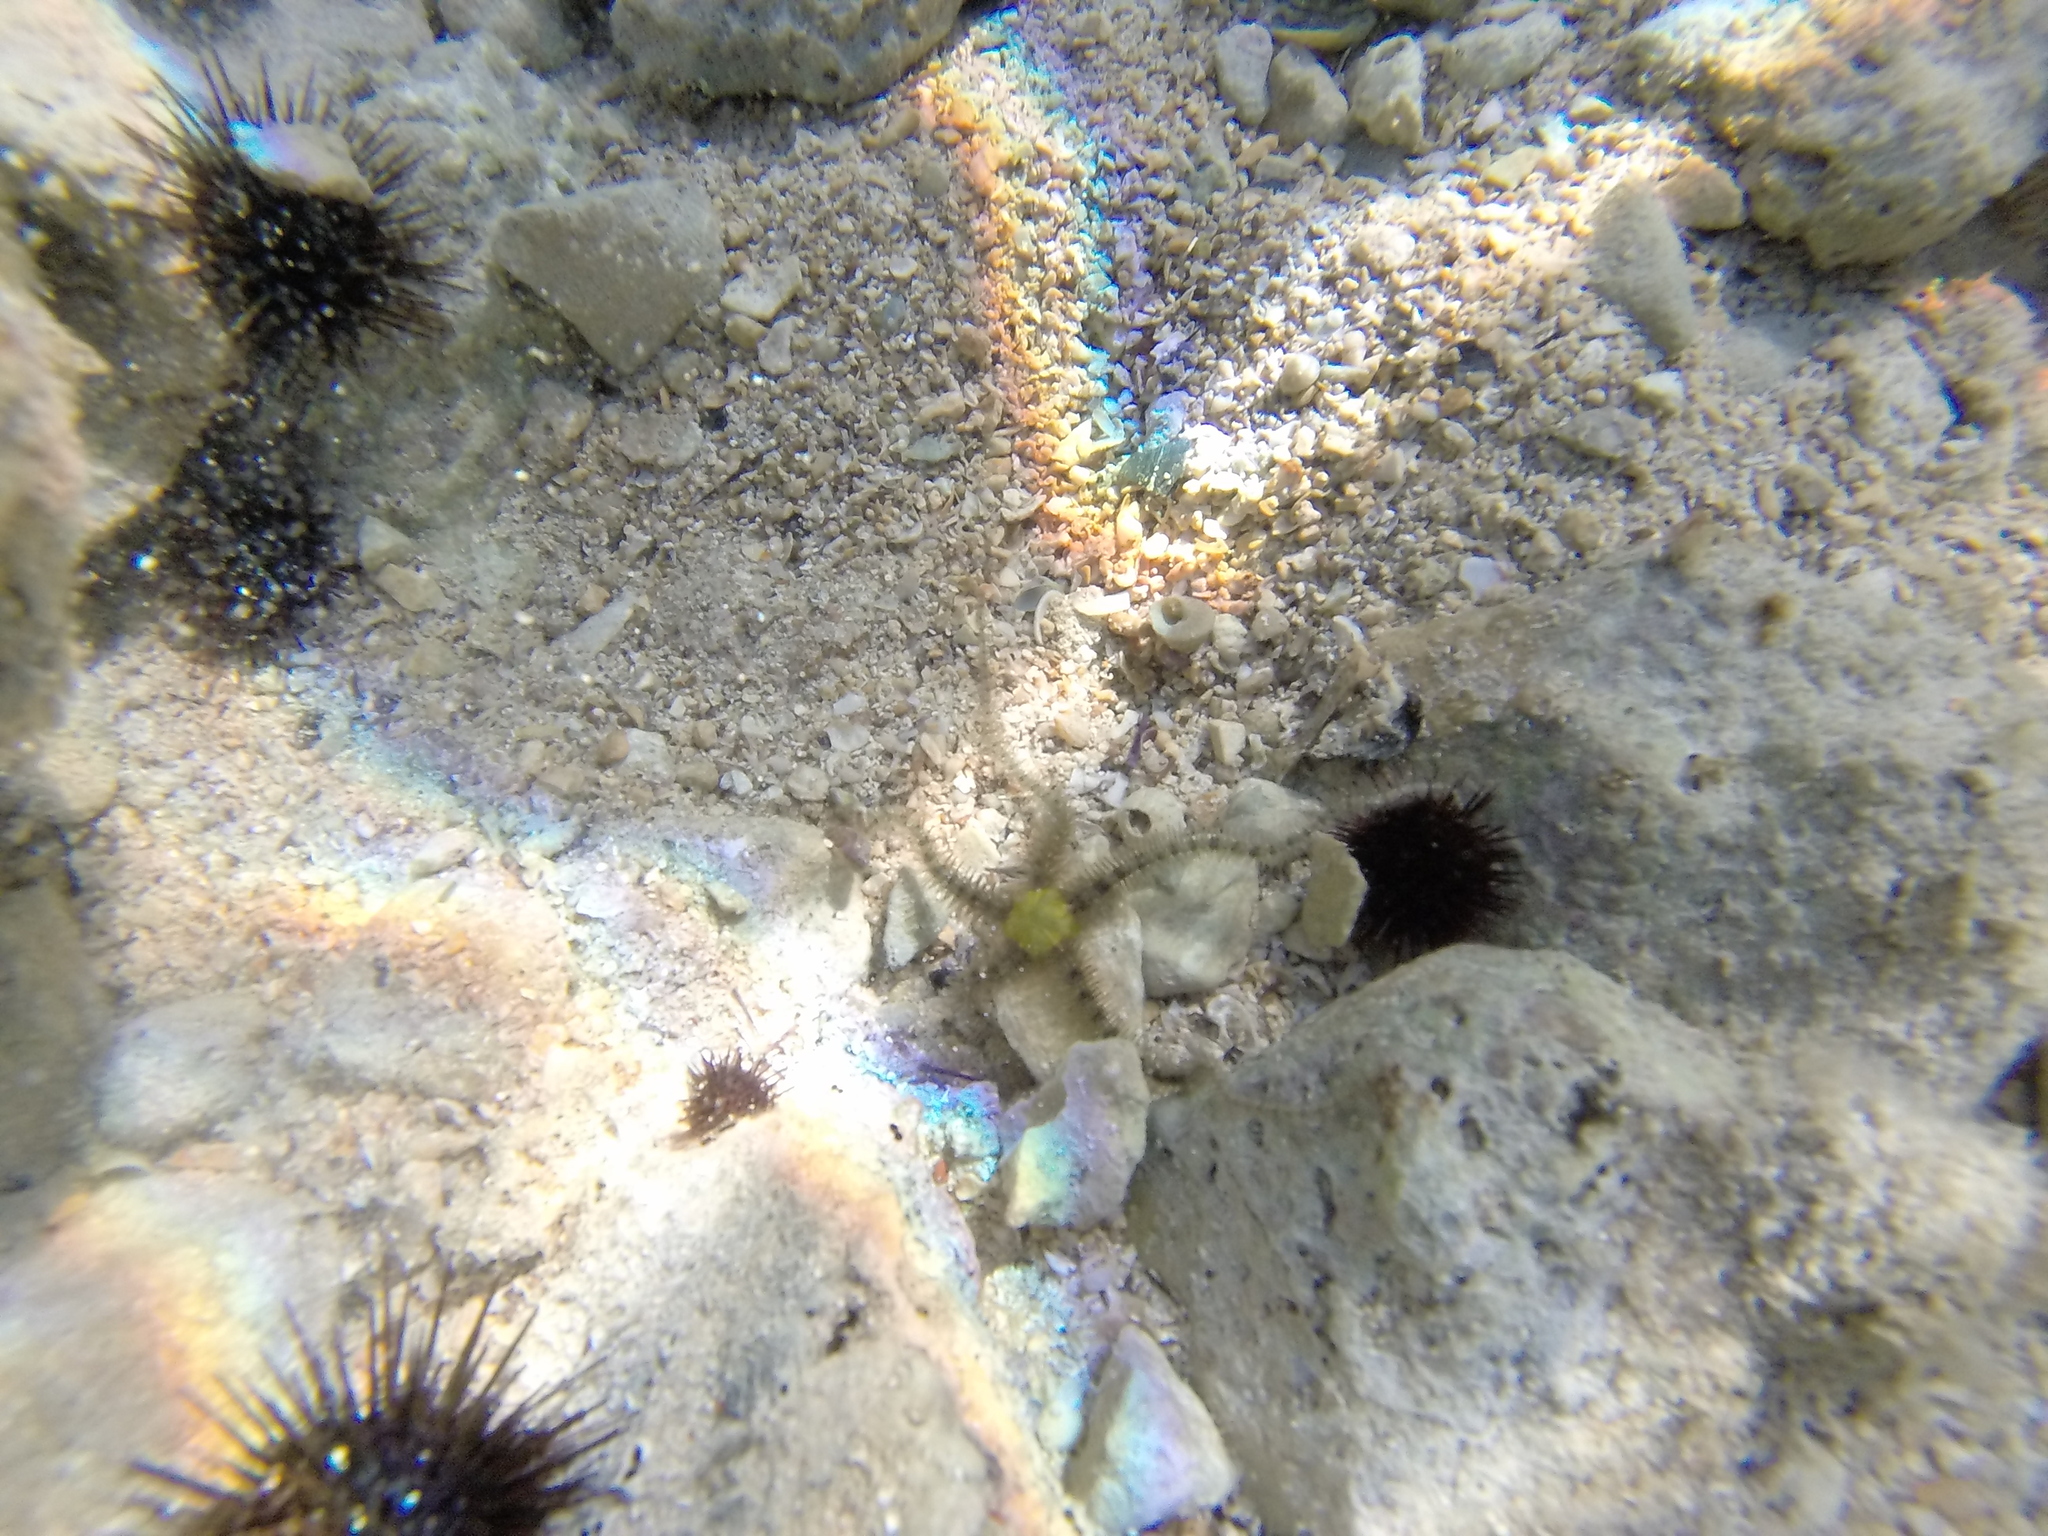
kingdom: Animalia
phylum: Echinodermata
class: Ophiuroidea
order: Amphilepidida
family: Ophiotrichidae
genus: Ophiothrix
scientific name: Ophiothrix fragilis
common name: Common brittlestar
